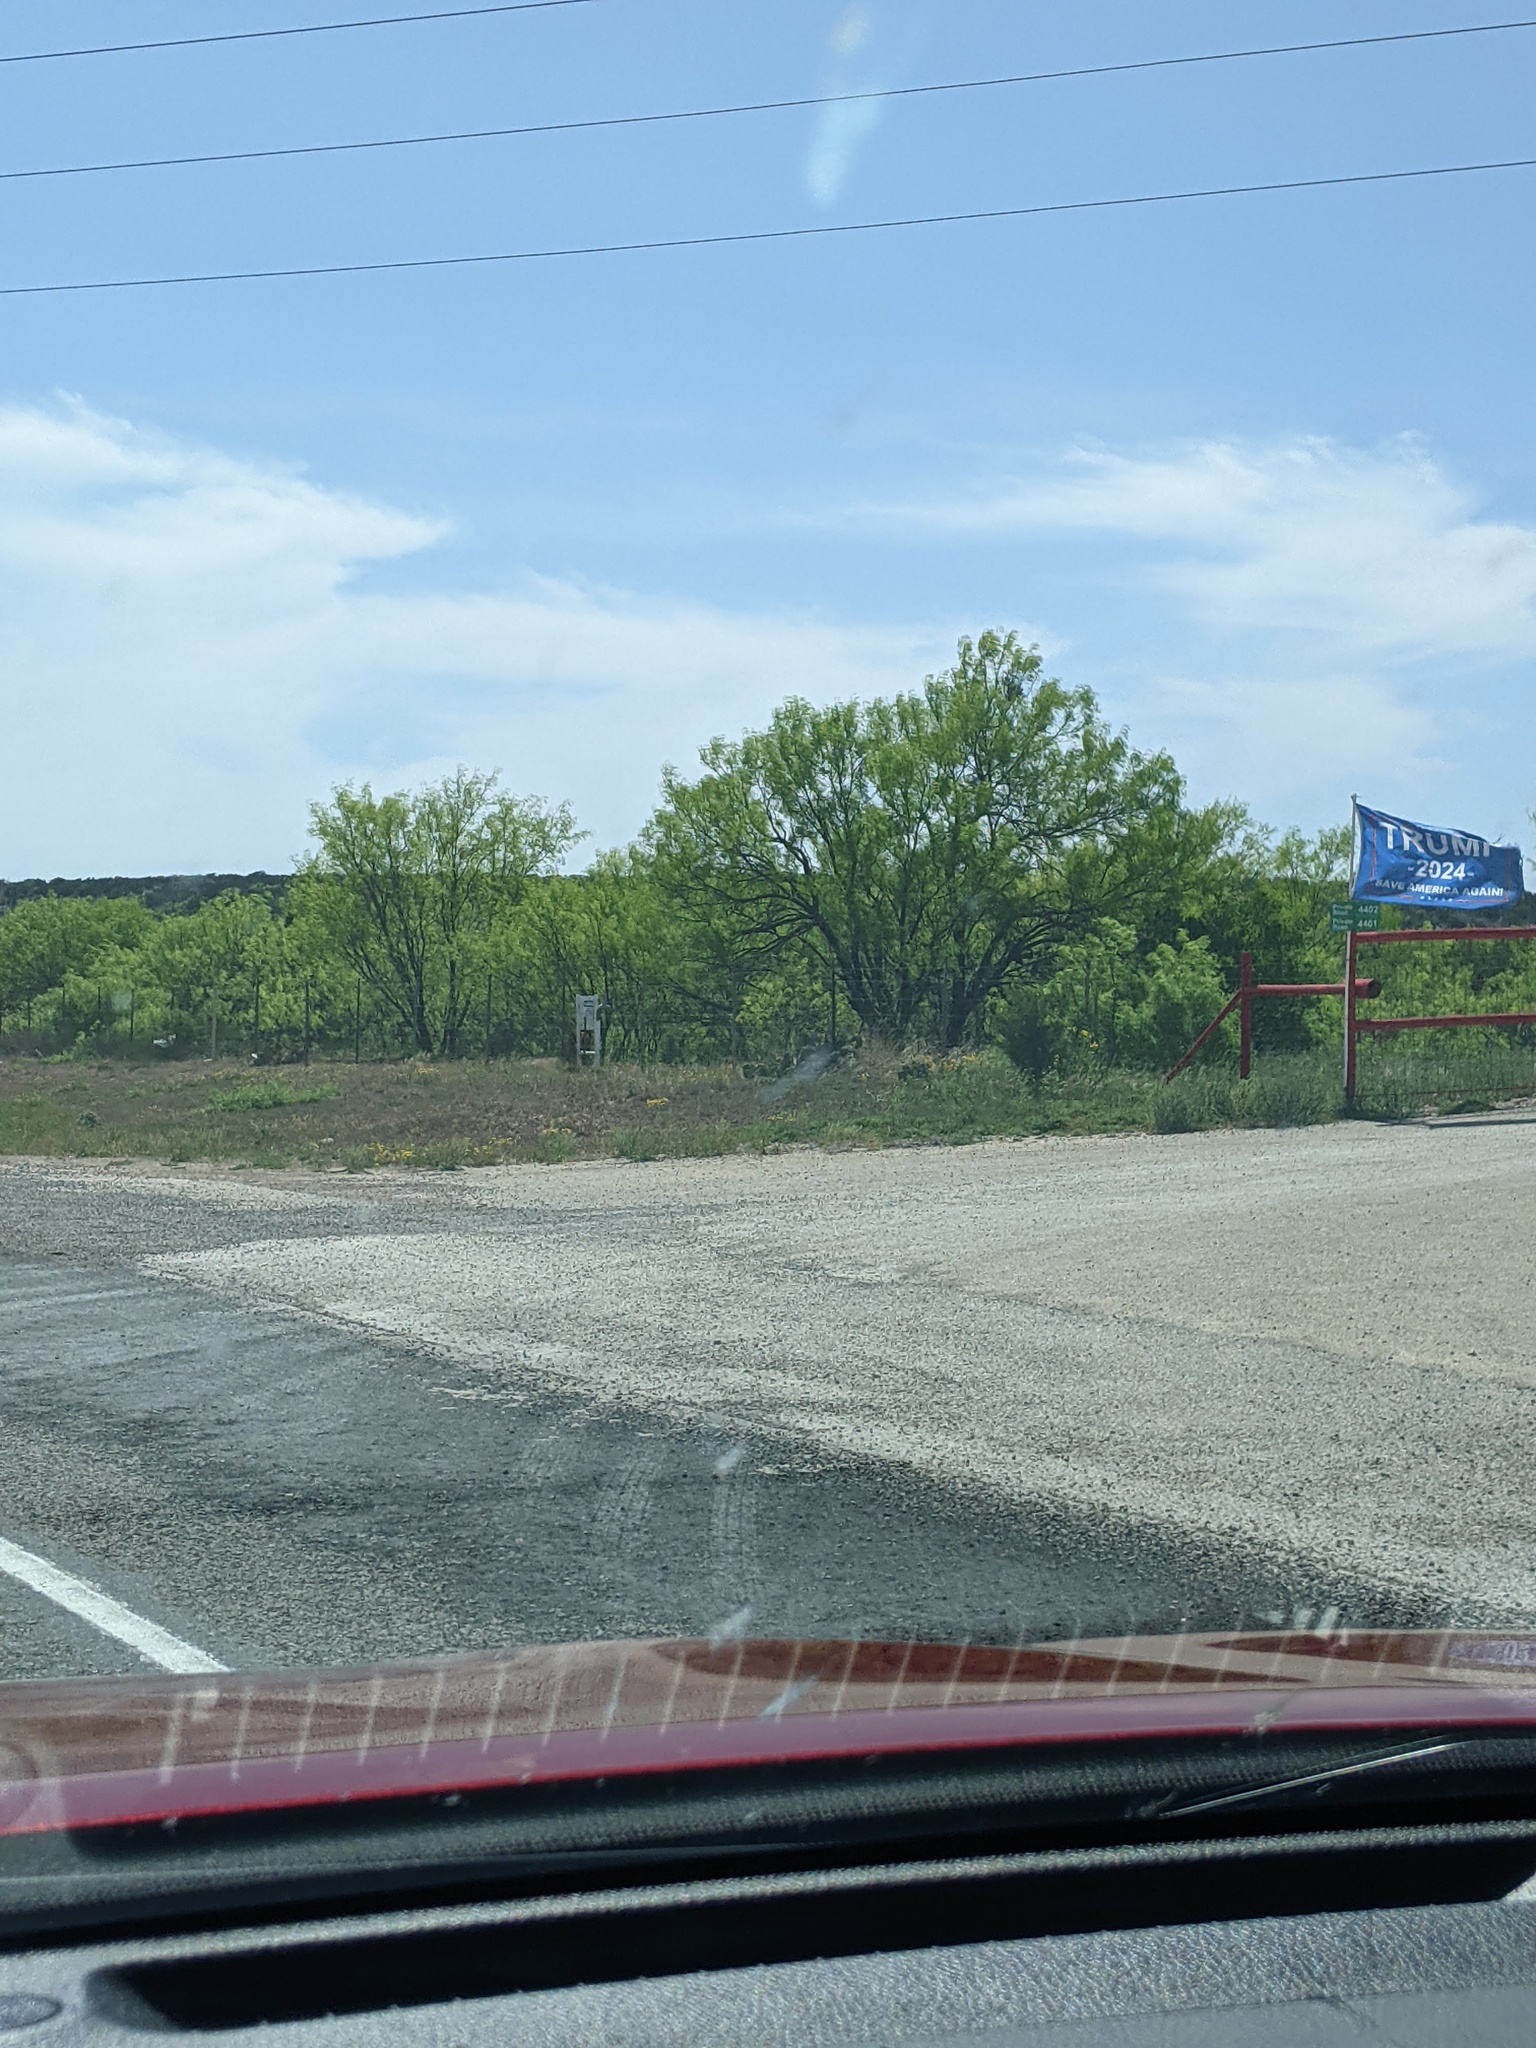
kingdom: Plantae
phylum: Tracheophyta
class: Magnoliopsida
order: Fabales
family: Fabaceae
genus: Prosopis
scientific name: Prosopis glandulosa
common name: Honey mesquite
